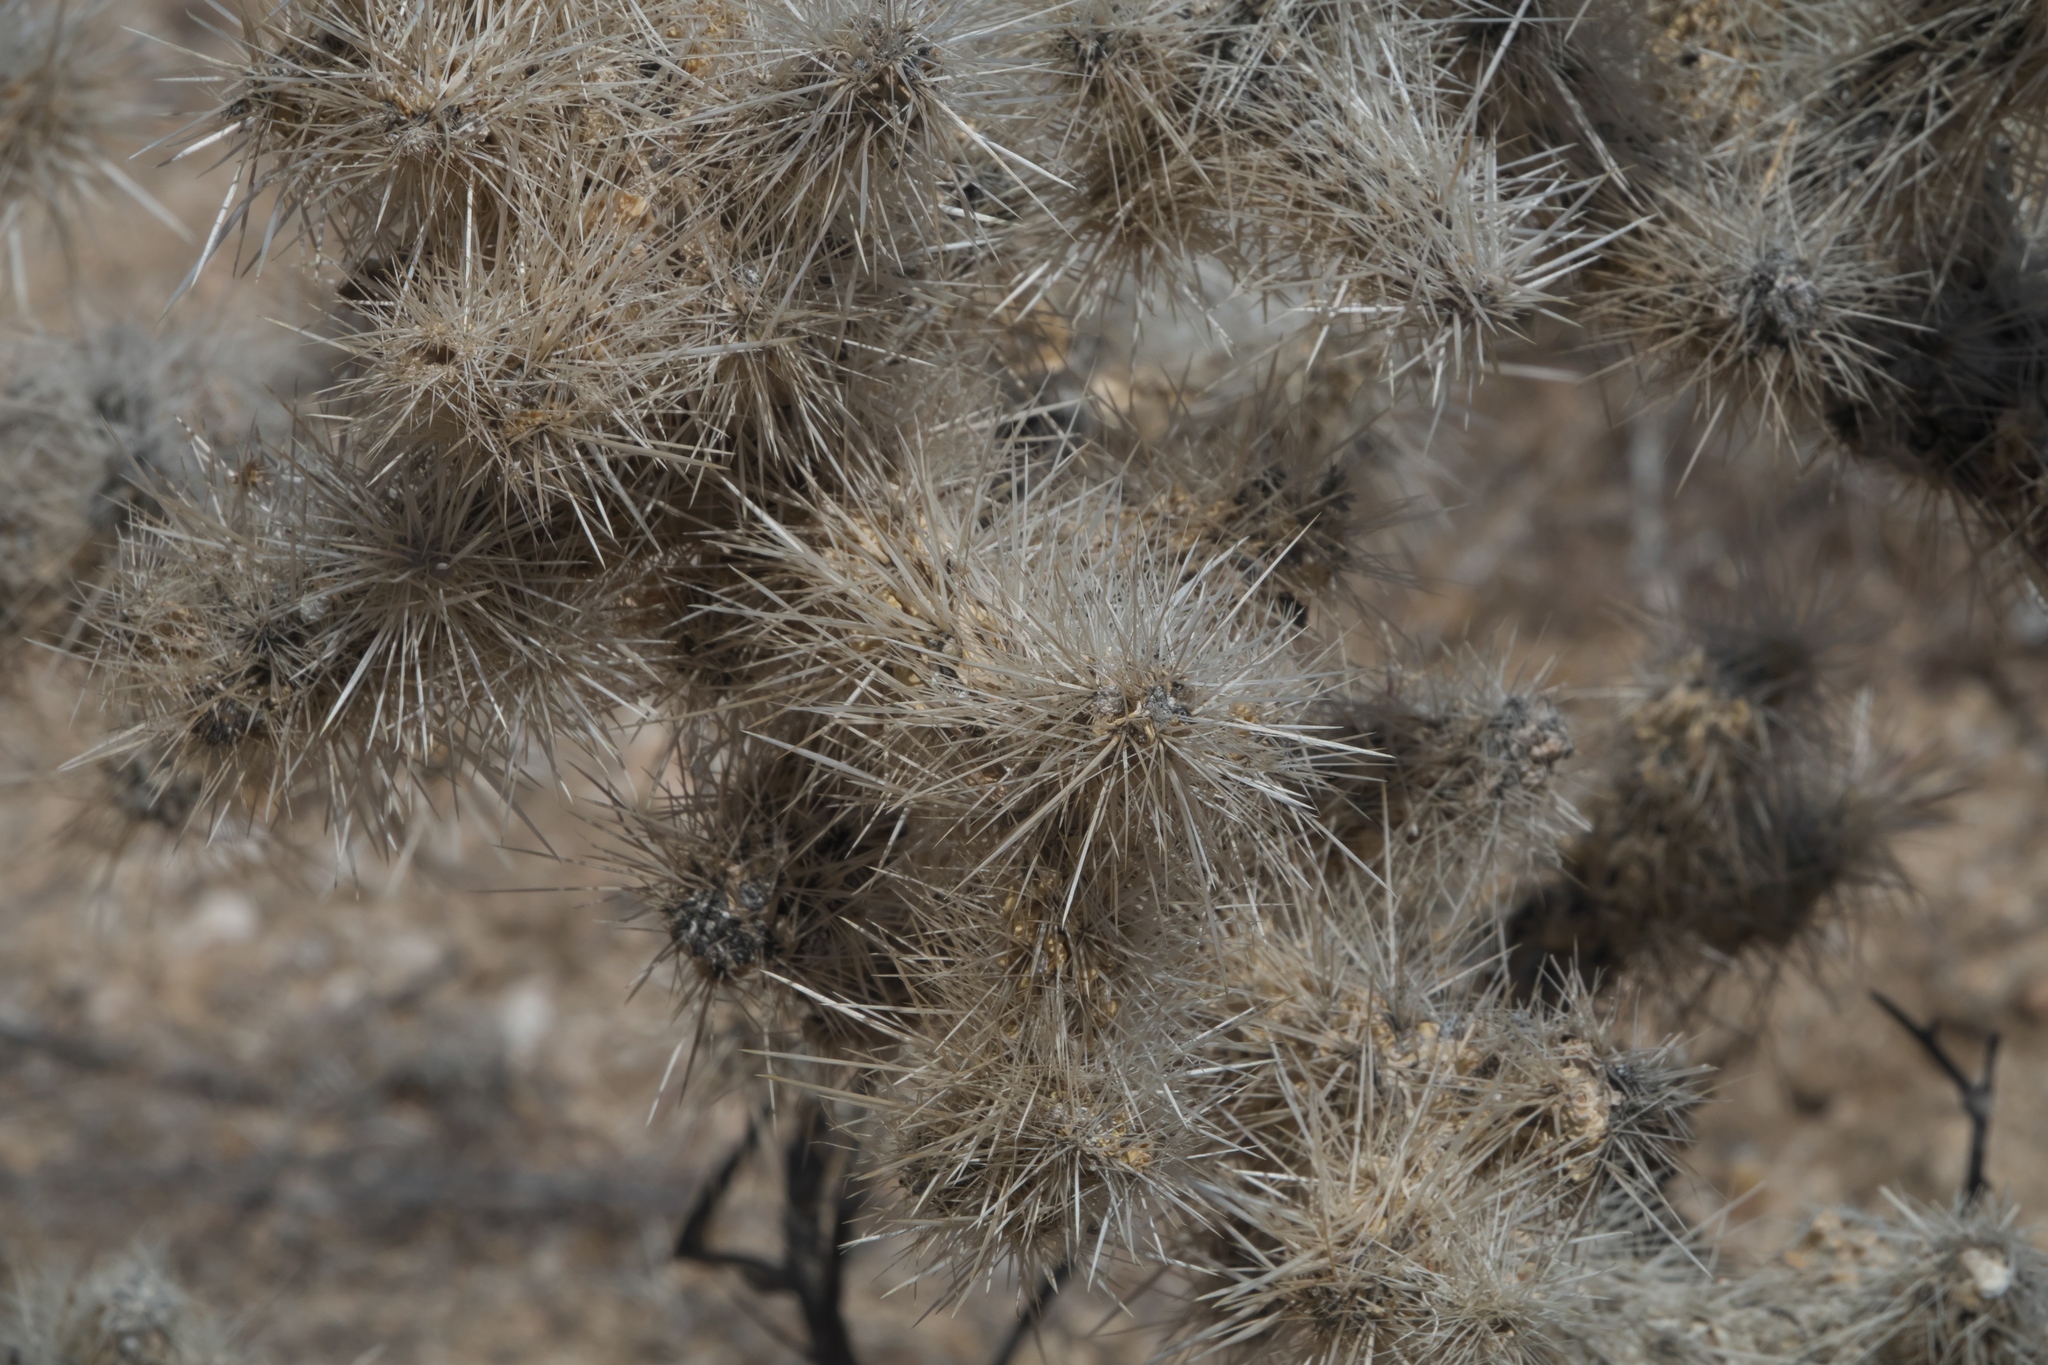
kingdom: Plantae
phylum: Tracheophyta
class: Magnoliopsida
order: Caryophyllales
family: Cactaceae
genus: Cylindropuntia
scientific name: Cylindropuntia echinocarpa
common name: Ground cholla
